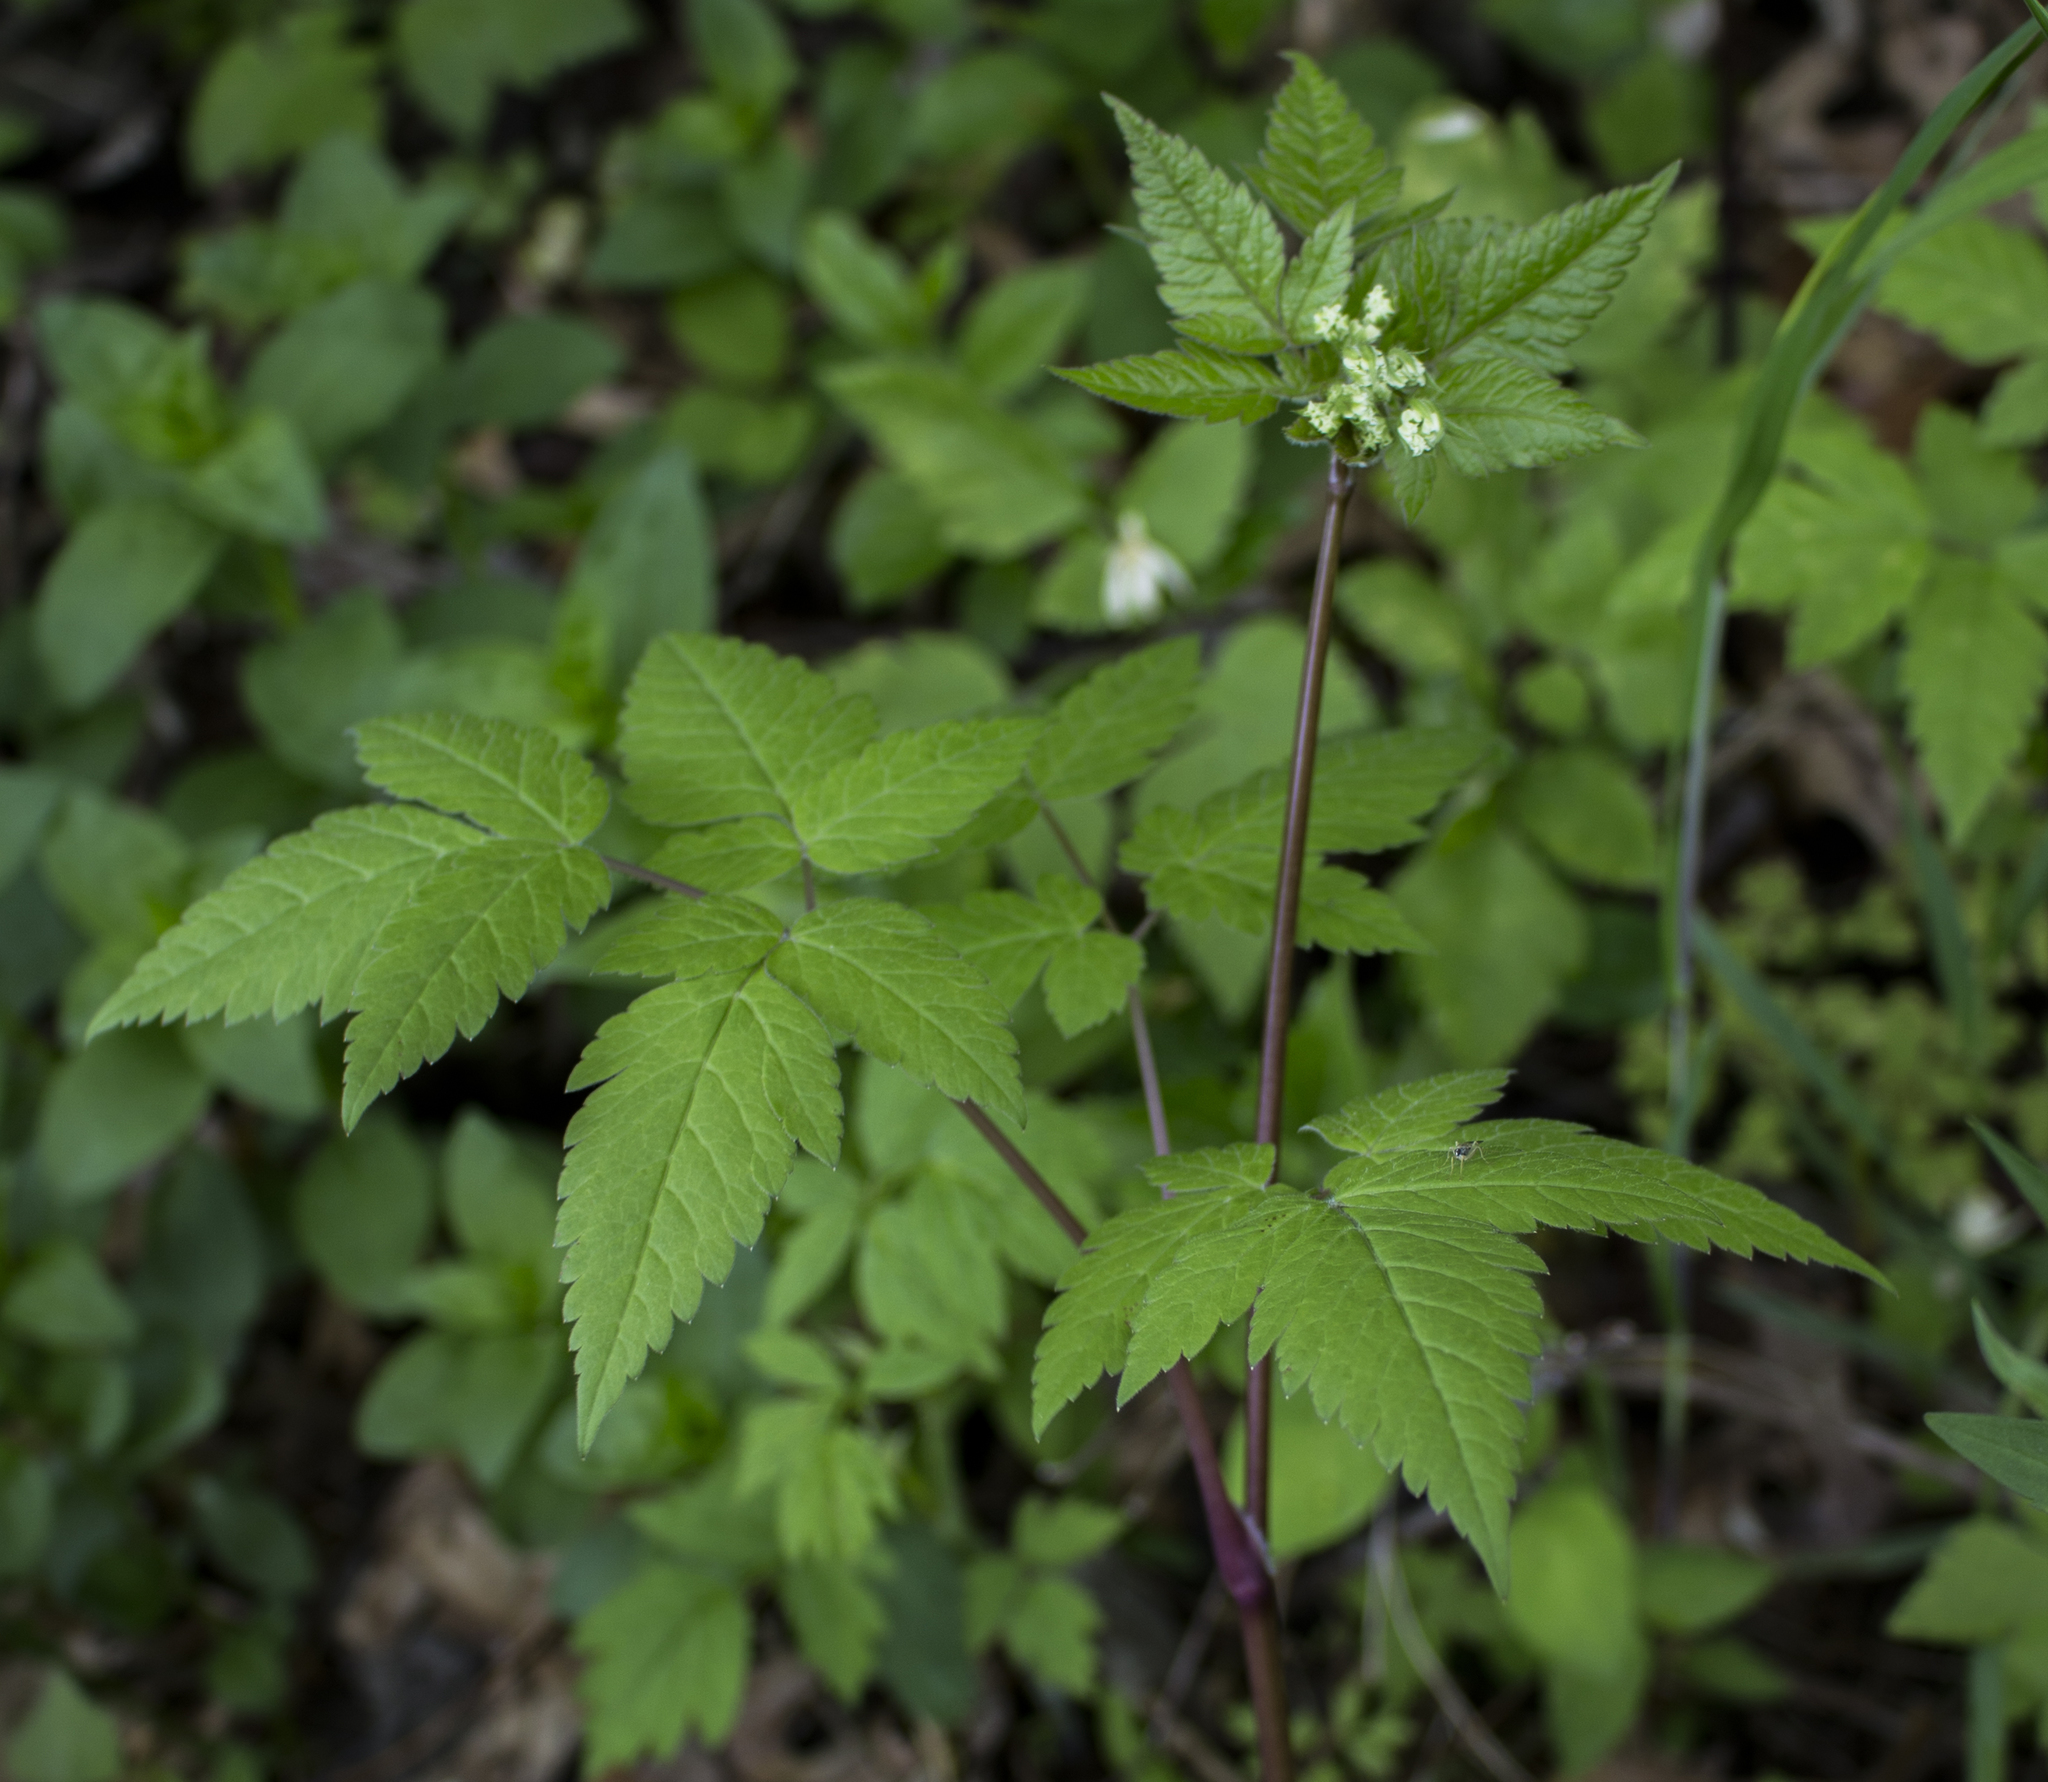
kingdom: Plantae
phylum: Tracheophyta
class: Magnoliopsida
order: Apiales
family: Apiaceae
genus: Osmorhiza
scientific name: Osmorhiza longistylis
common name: Smooth sweet cicely
